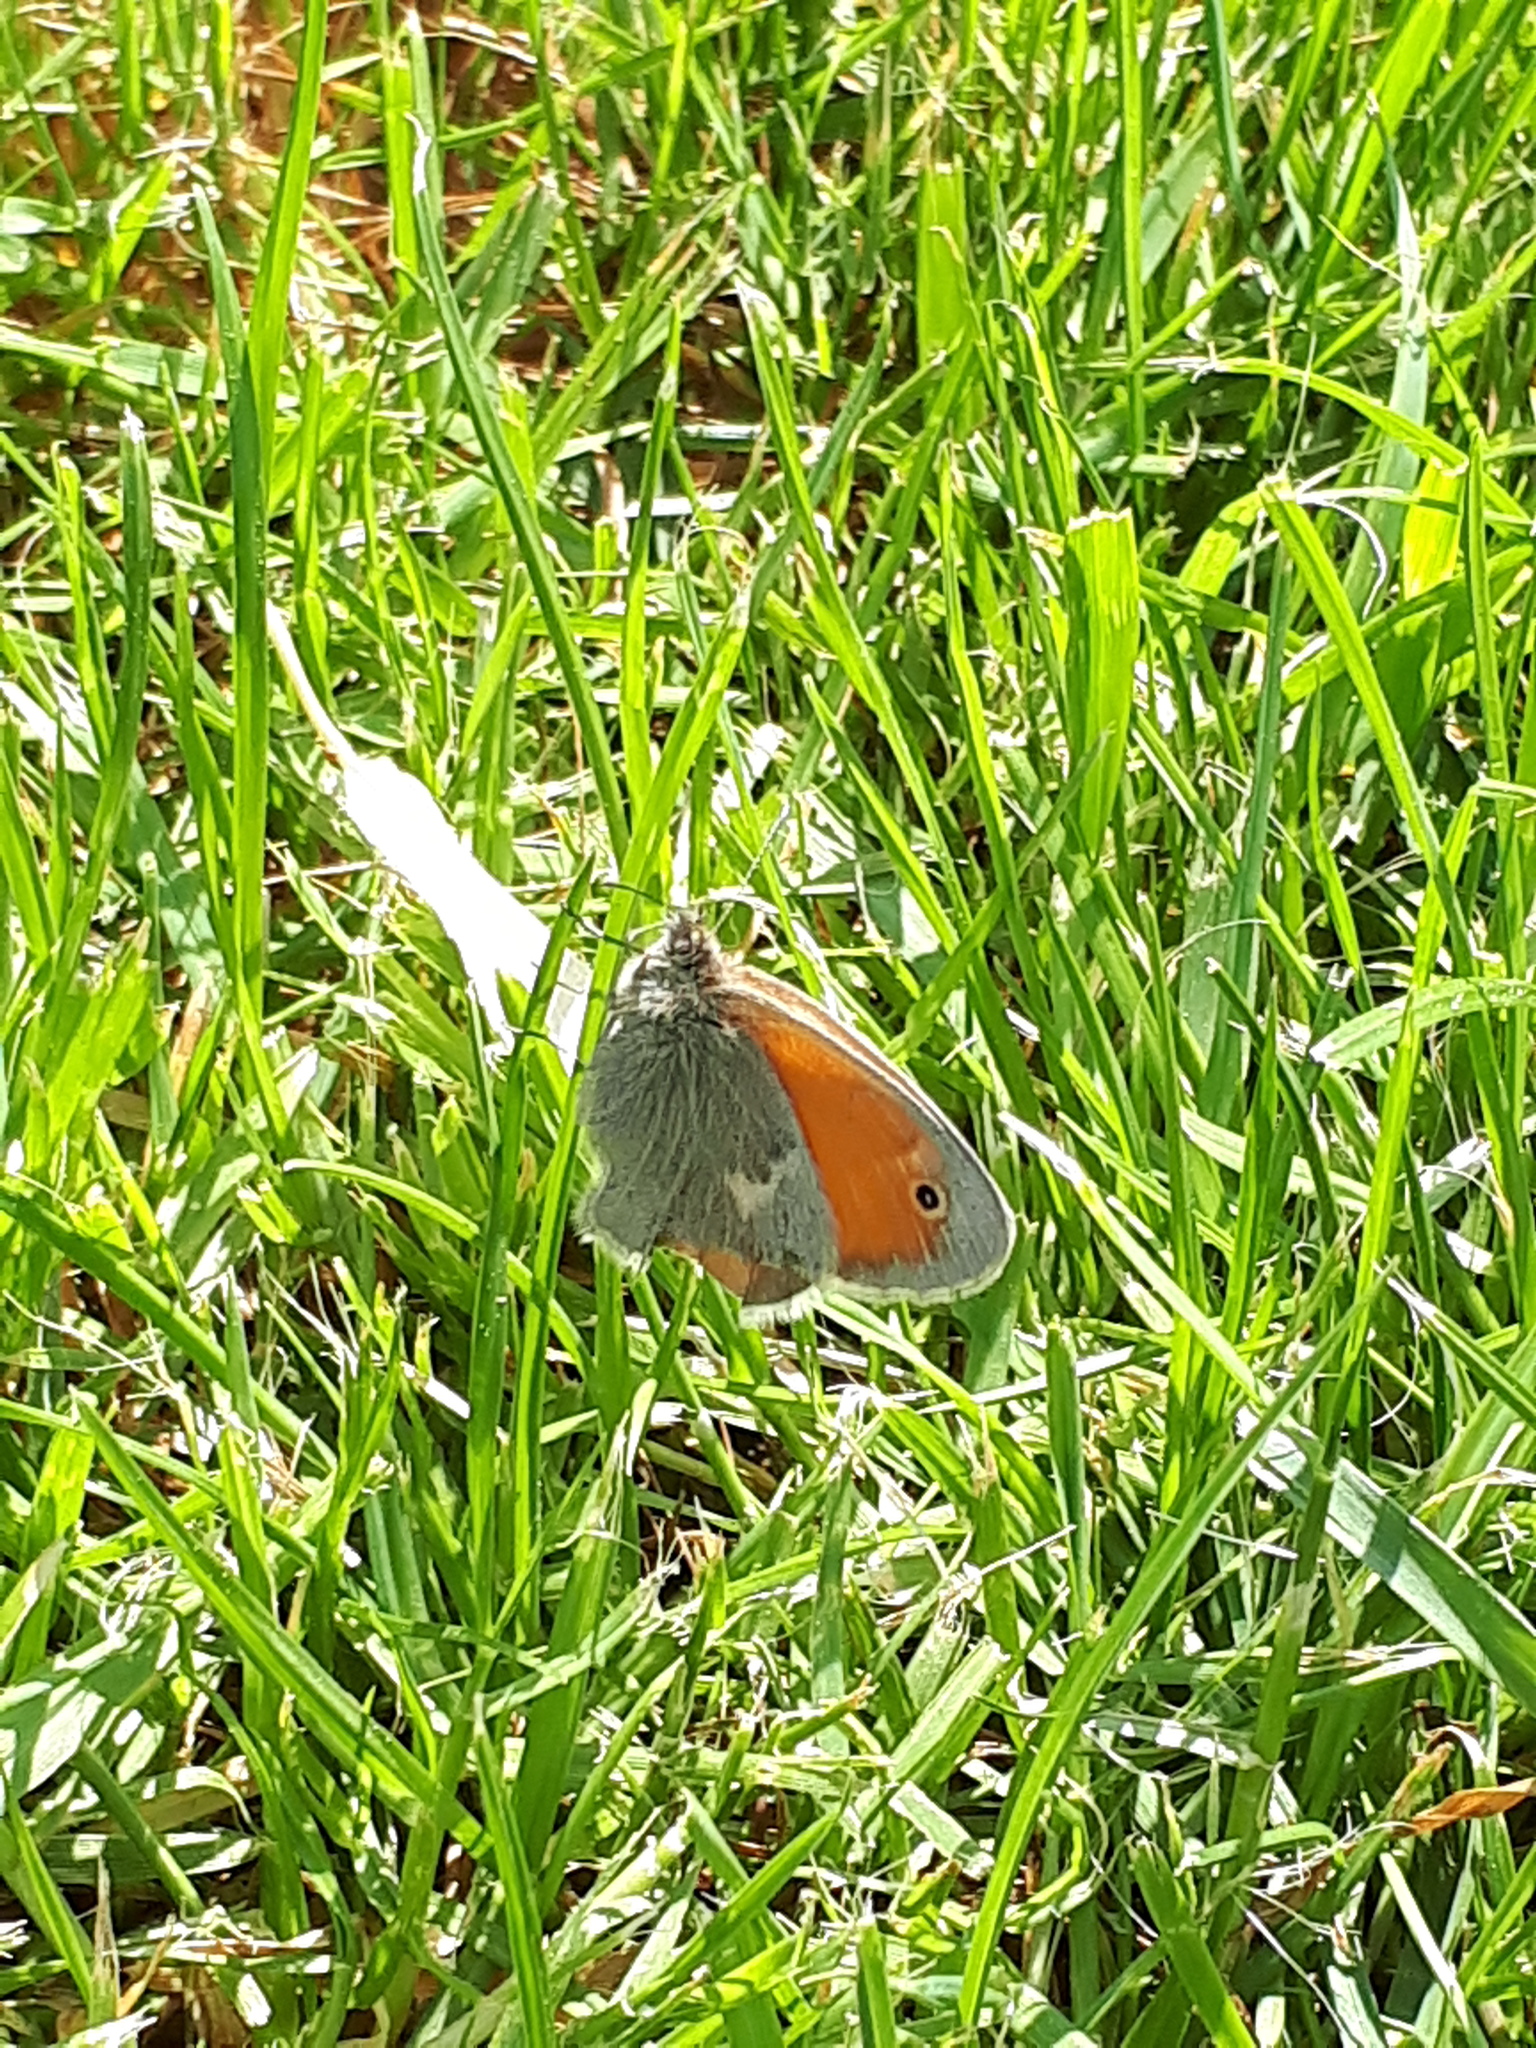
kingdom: Animalia
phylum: Arthropoda
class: Insecta
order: Lepidoptera
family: Nymphalidae
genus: Coenonympha
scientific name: Coenonympha pamphilus
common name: Small heath
